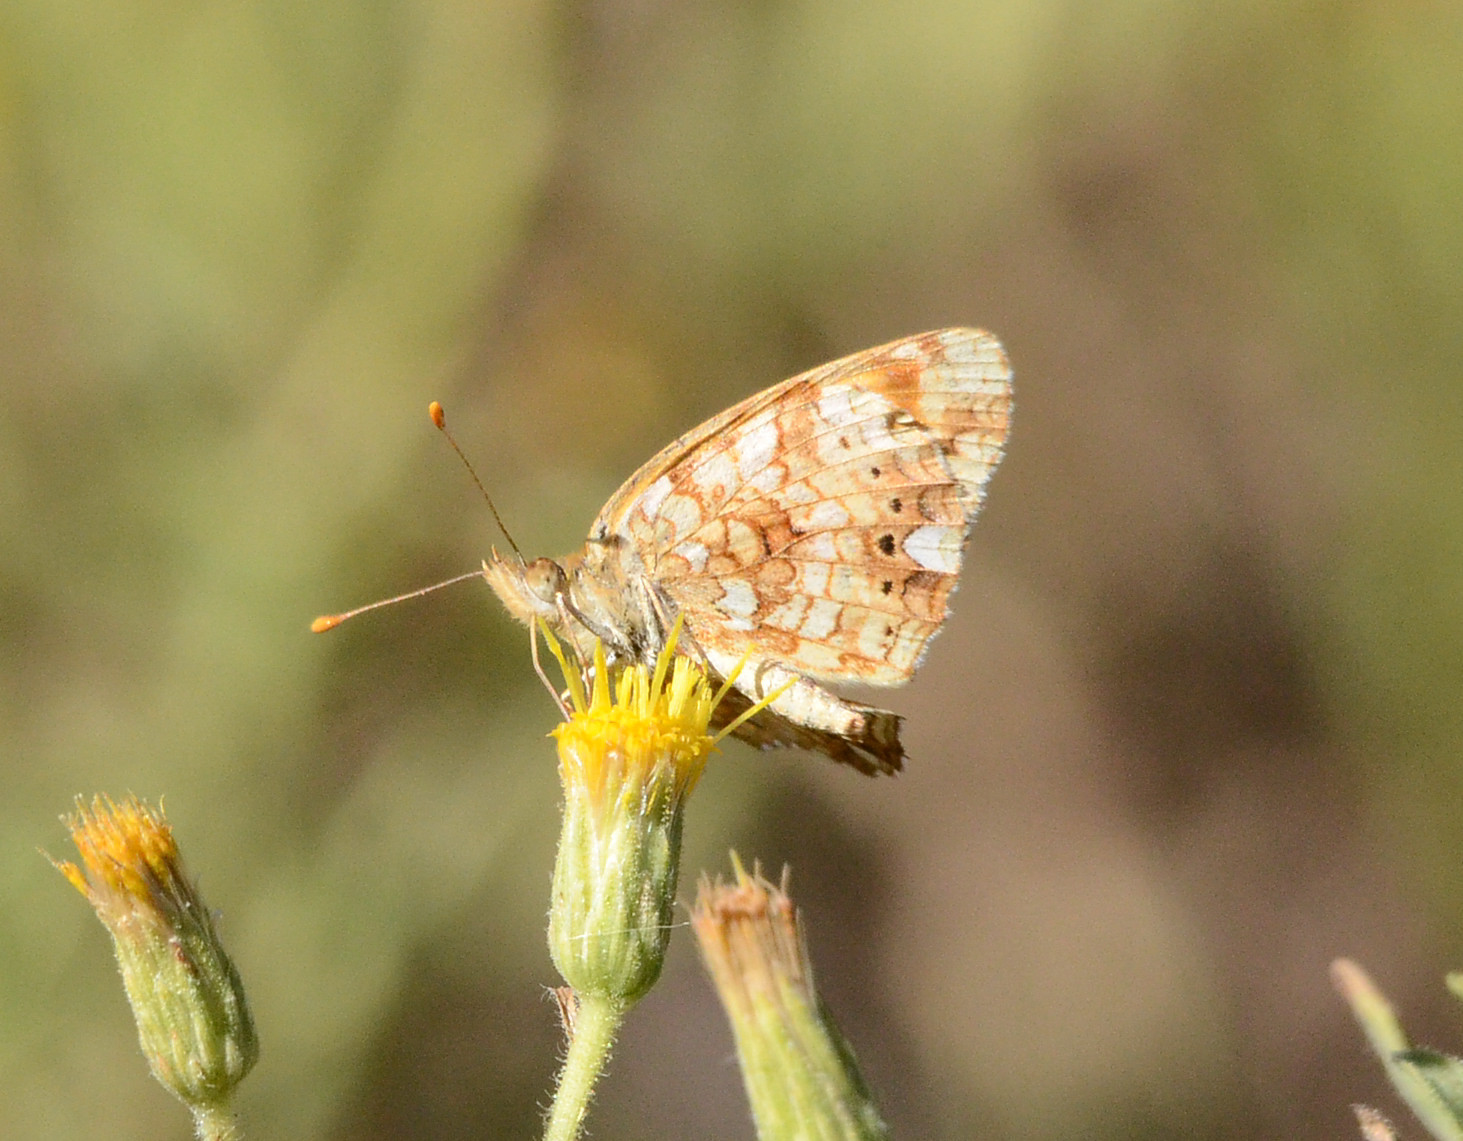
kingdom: Animalia
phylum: Arthropoda
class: Insecta
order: Lepidoptera
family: Nymphalidae
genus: Eresia
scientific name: Eresia aveyrona
